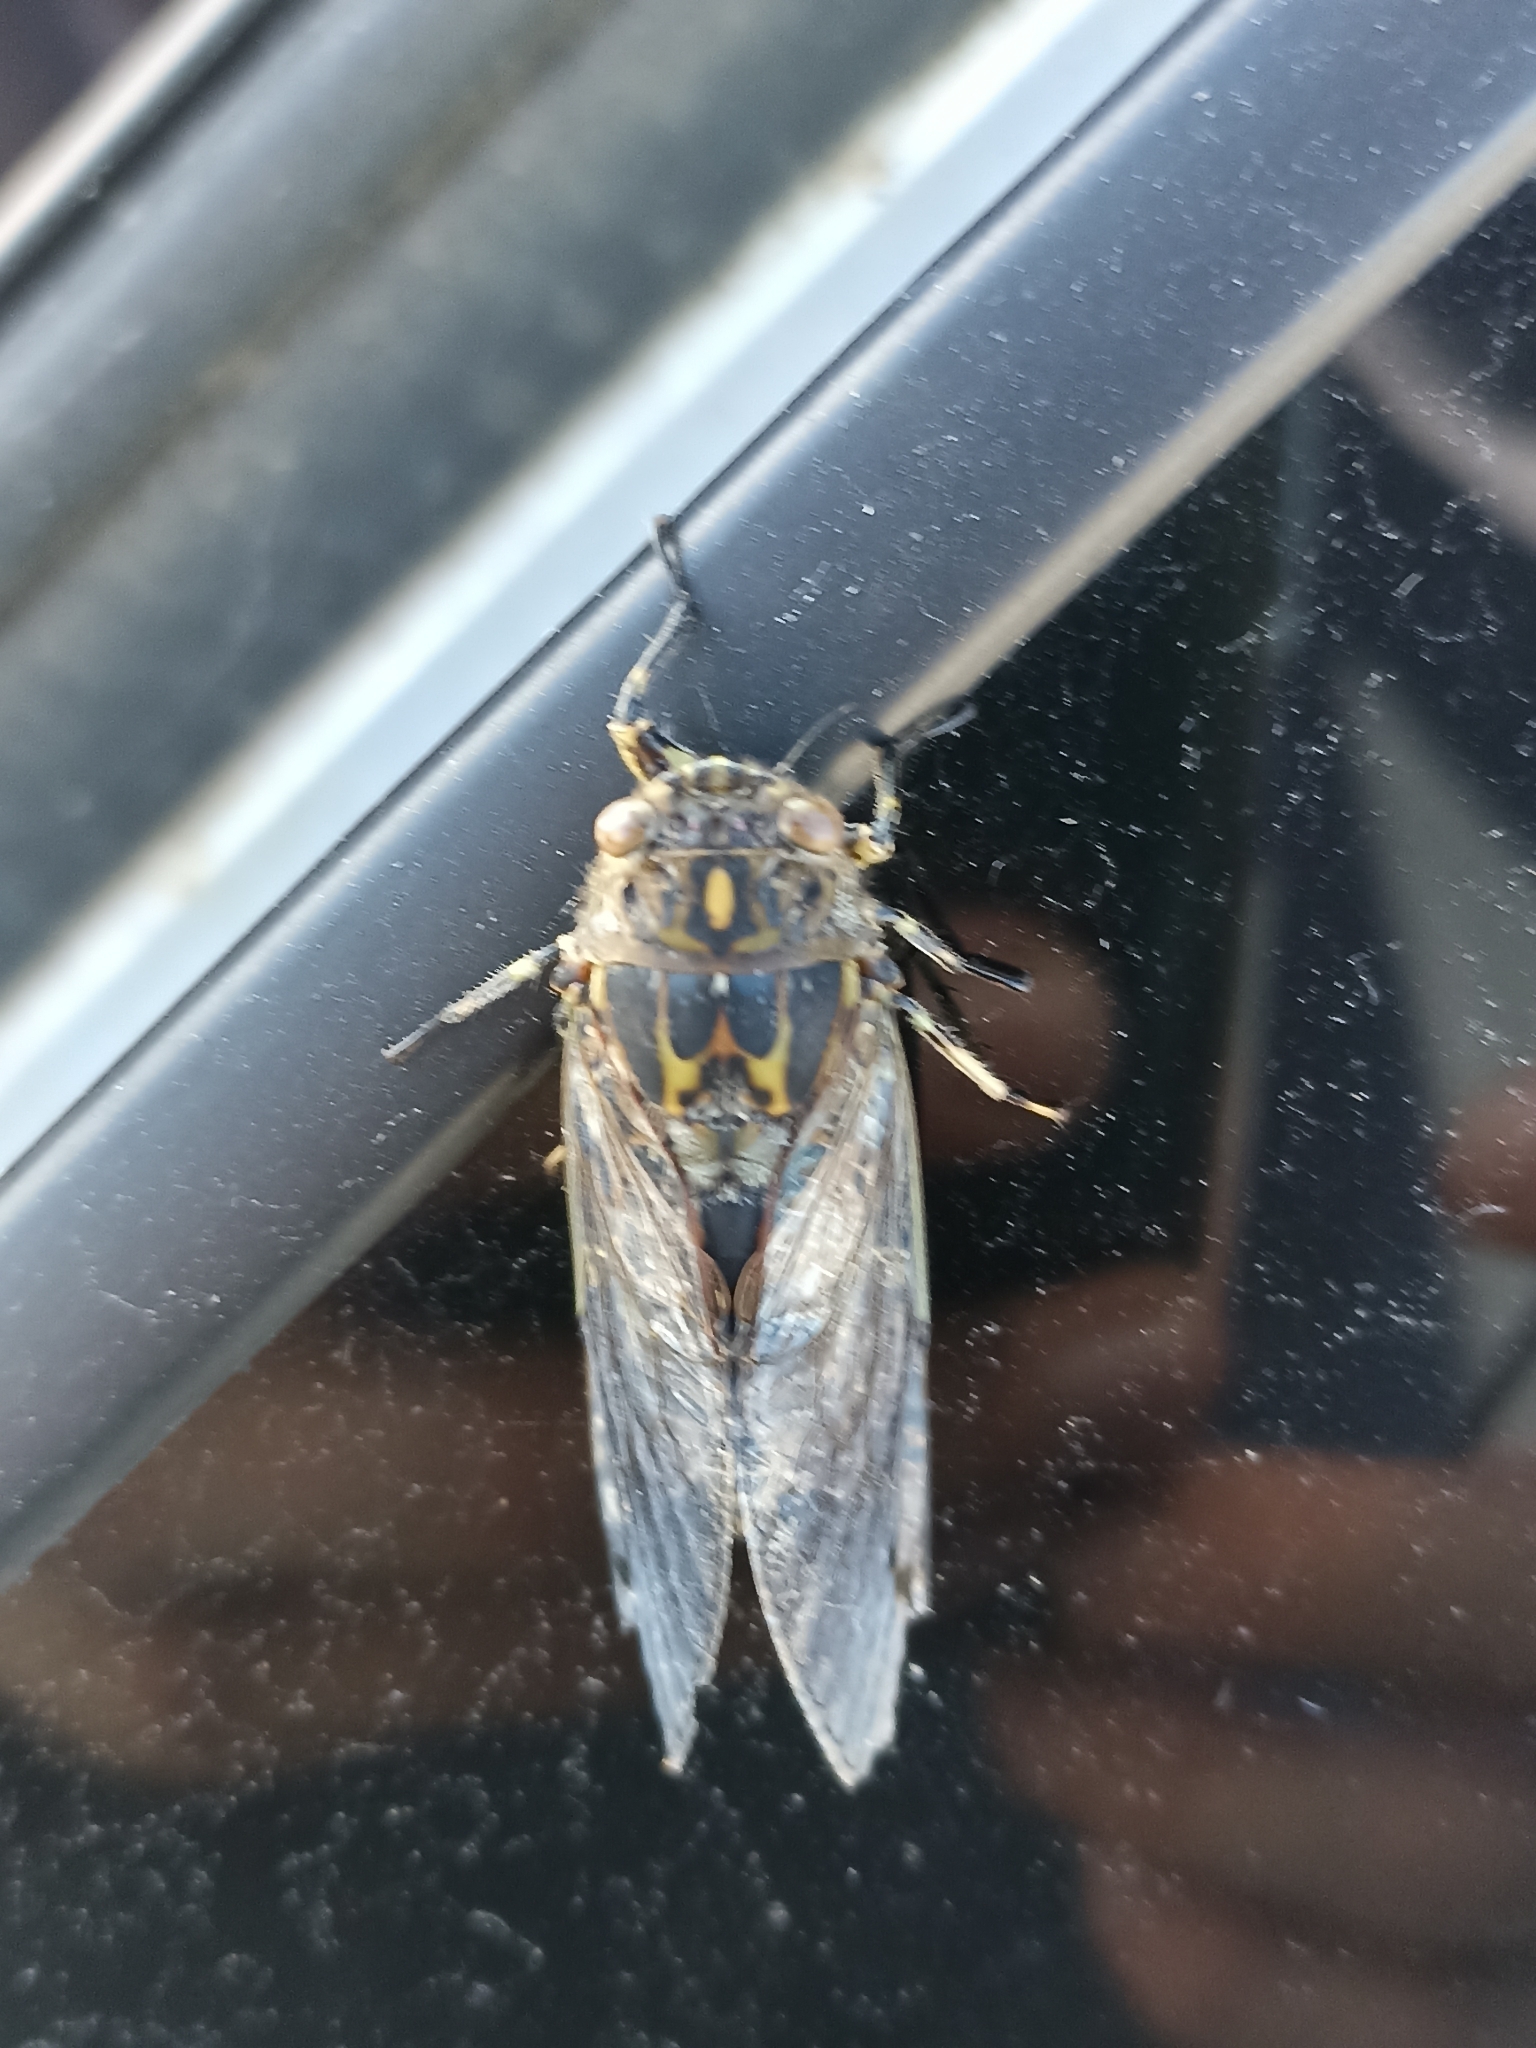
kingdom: Animalia
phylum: Arthropoda
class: Insecta
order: Hemiptera
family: Cicadidae
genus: Amphipsalta
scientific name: Amphipsalta cingulata
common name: Clapping cicada
